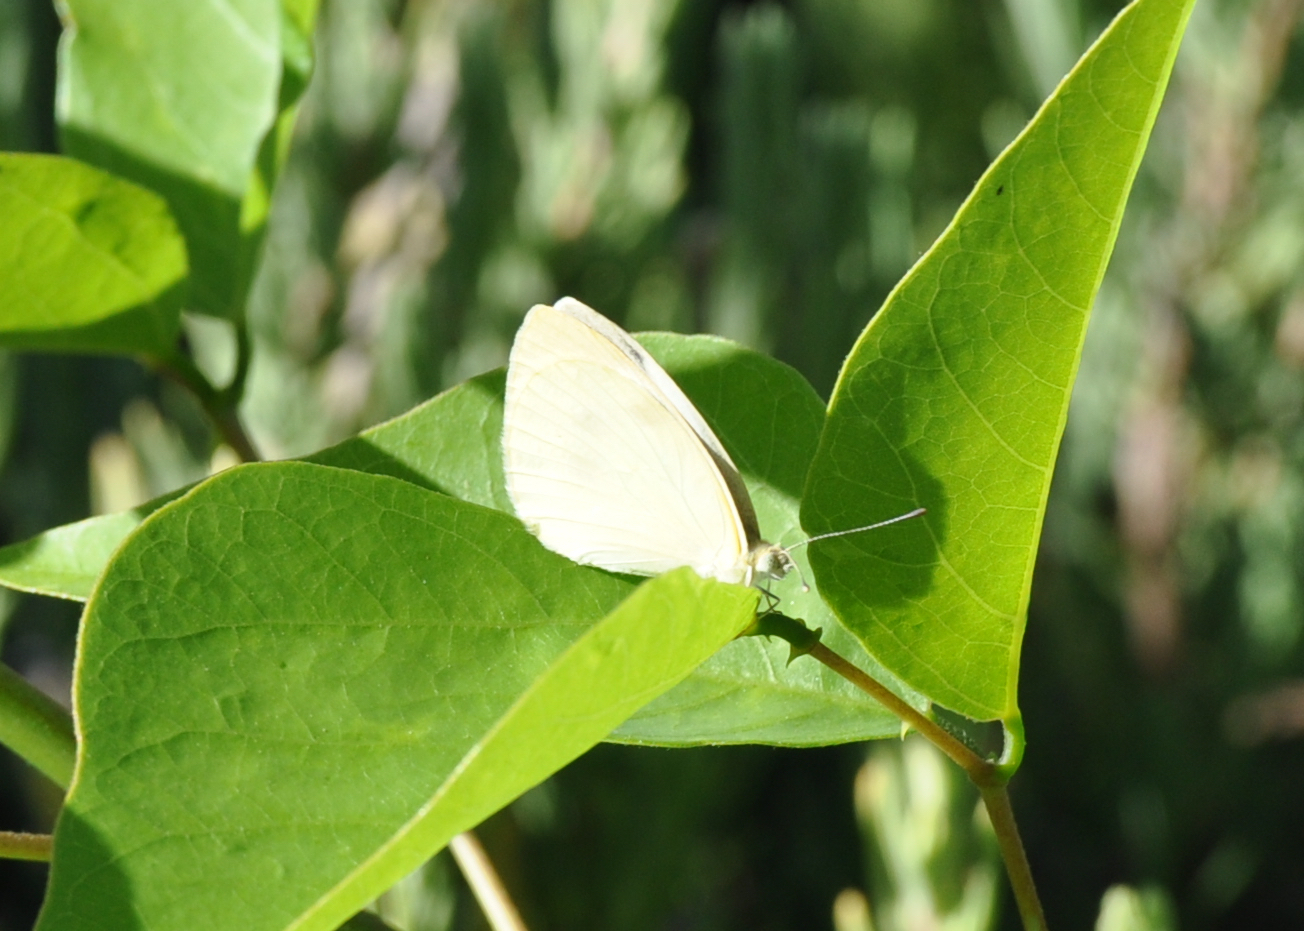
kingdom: Animalia
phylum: Arthropoda
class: Insecta
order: Lepidoptera
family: Pieridae
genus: Pieris
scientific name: Pieris rapae
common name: Small white
